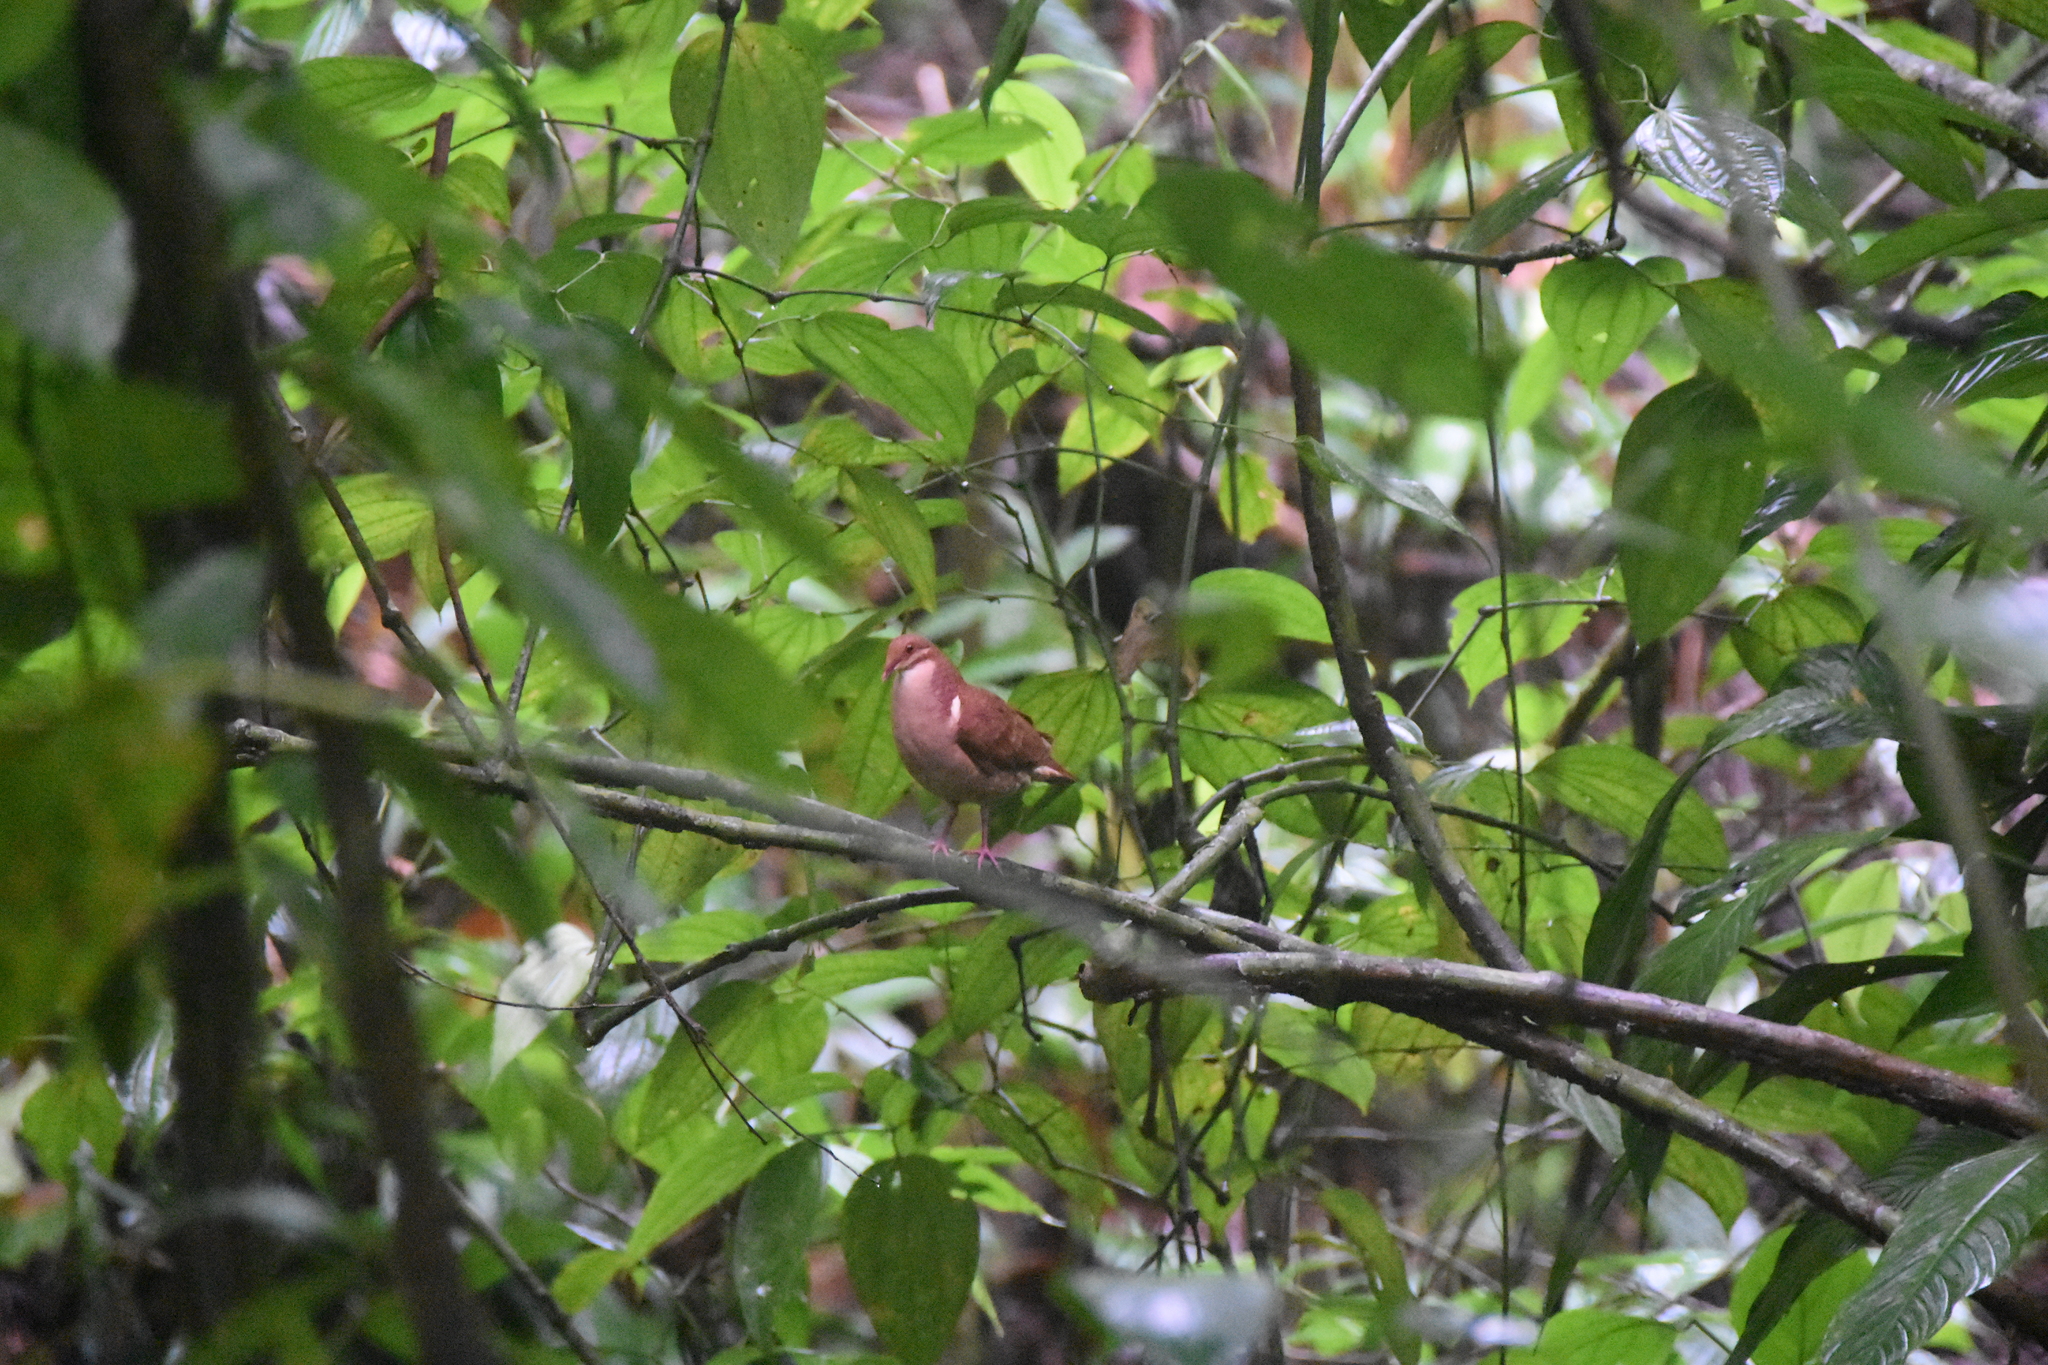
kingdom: Animalia
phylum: Chordata
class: Aves
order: Columbiformes
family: Columbidae
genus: Geotrygon
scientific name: Geotrygon montana
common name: Ruddy quail-dove
